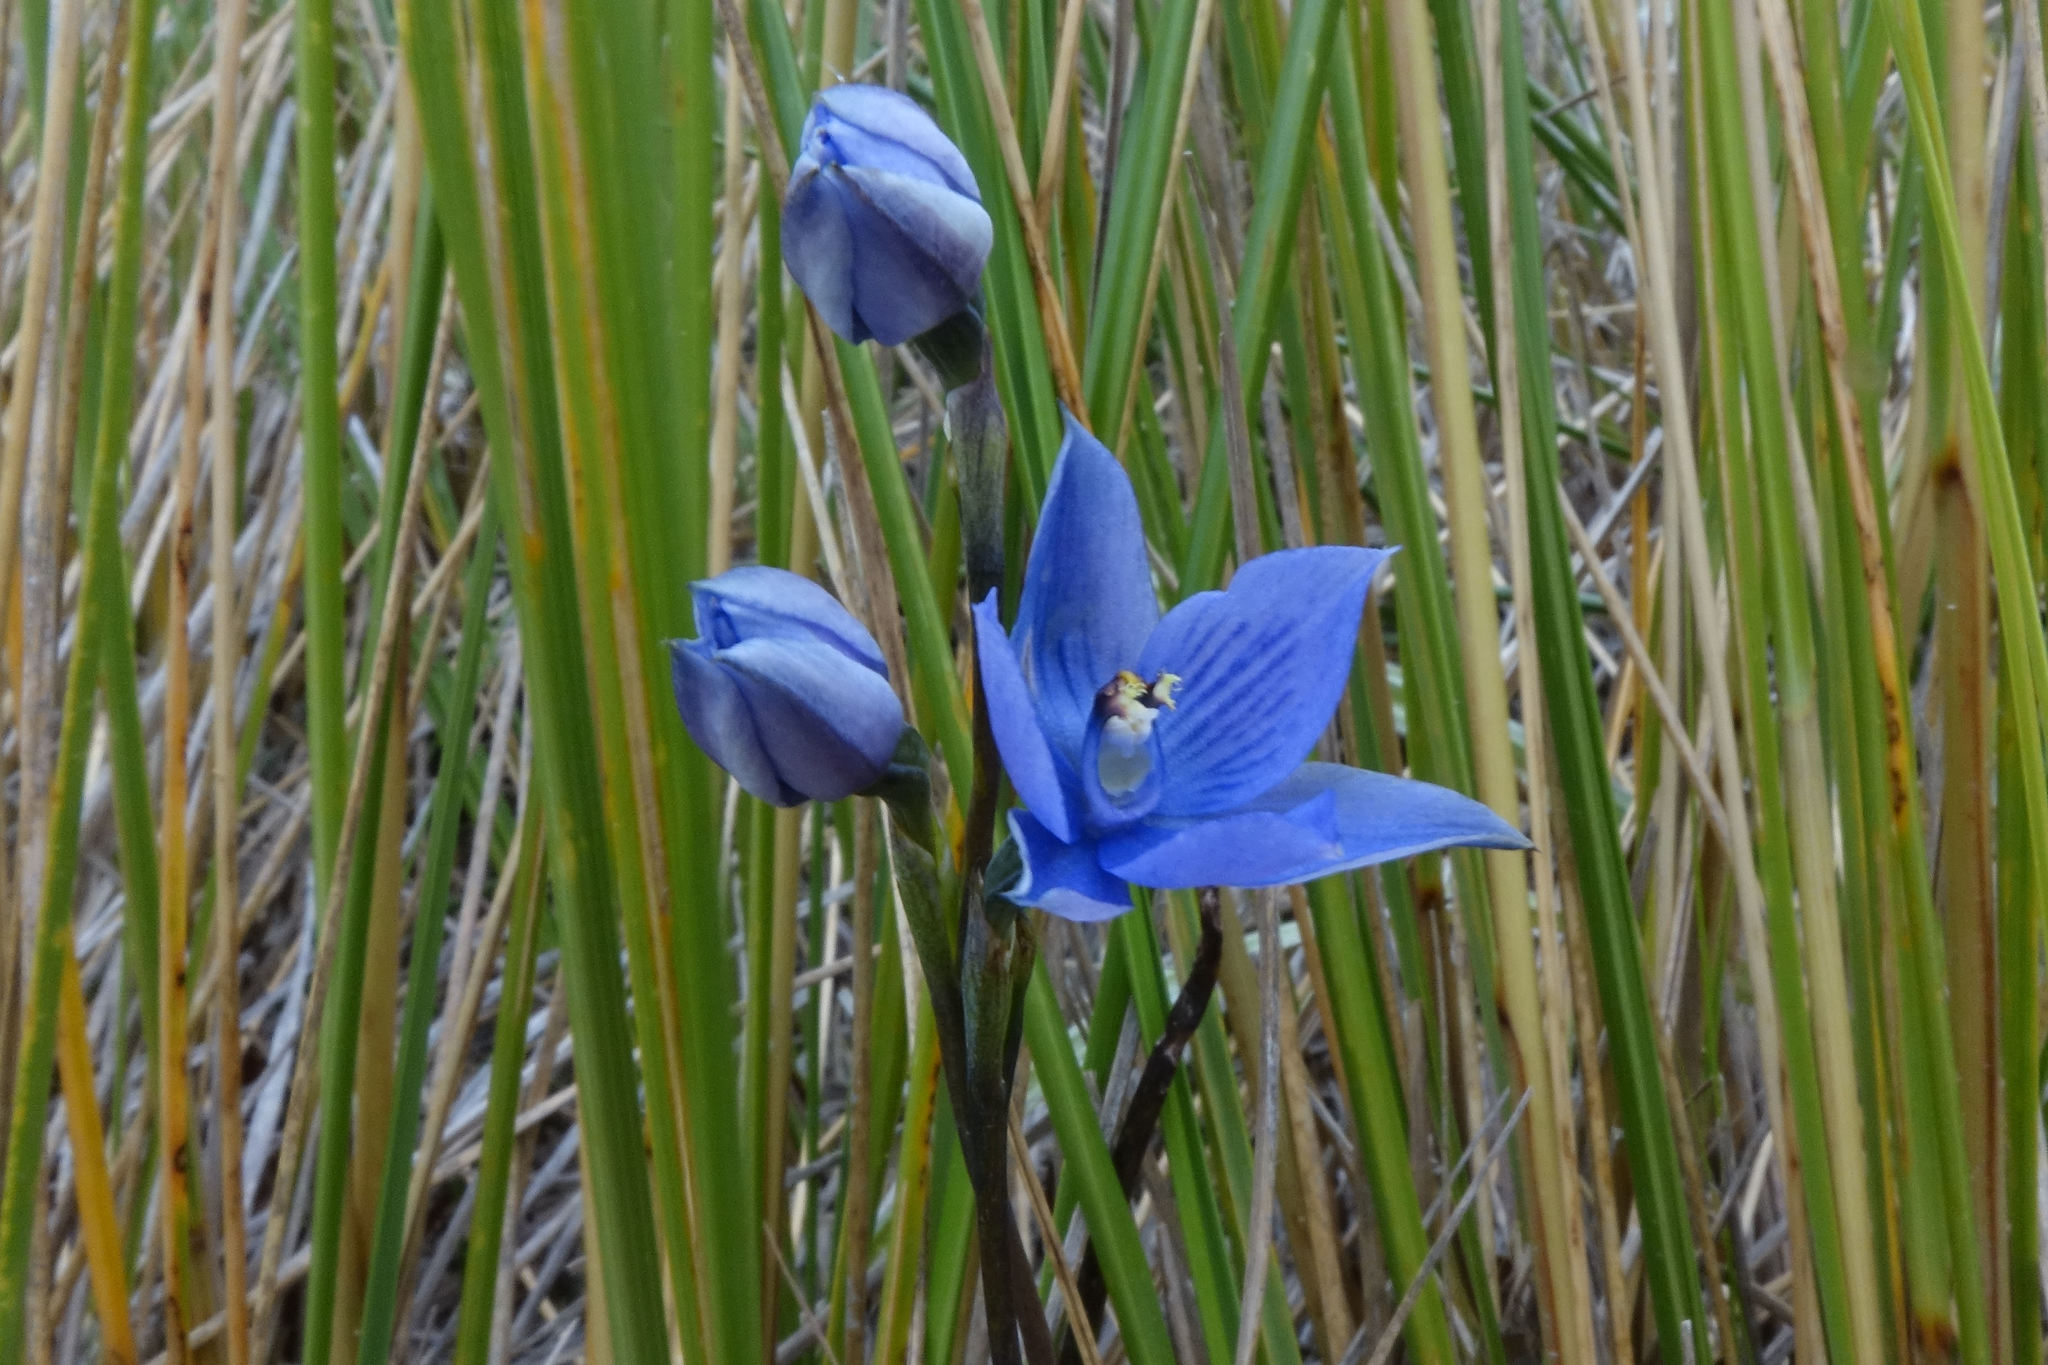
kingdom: Plantae
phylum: Tracheophyta
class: Liliopsida
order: Asparagales
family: Orchidaceae
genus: Thelymitra
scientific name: Thelymitra pulchella
